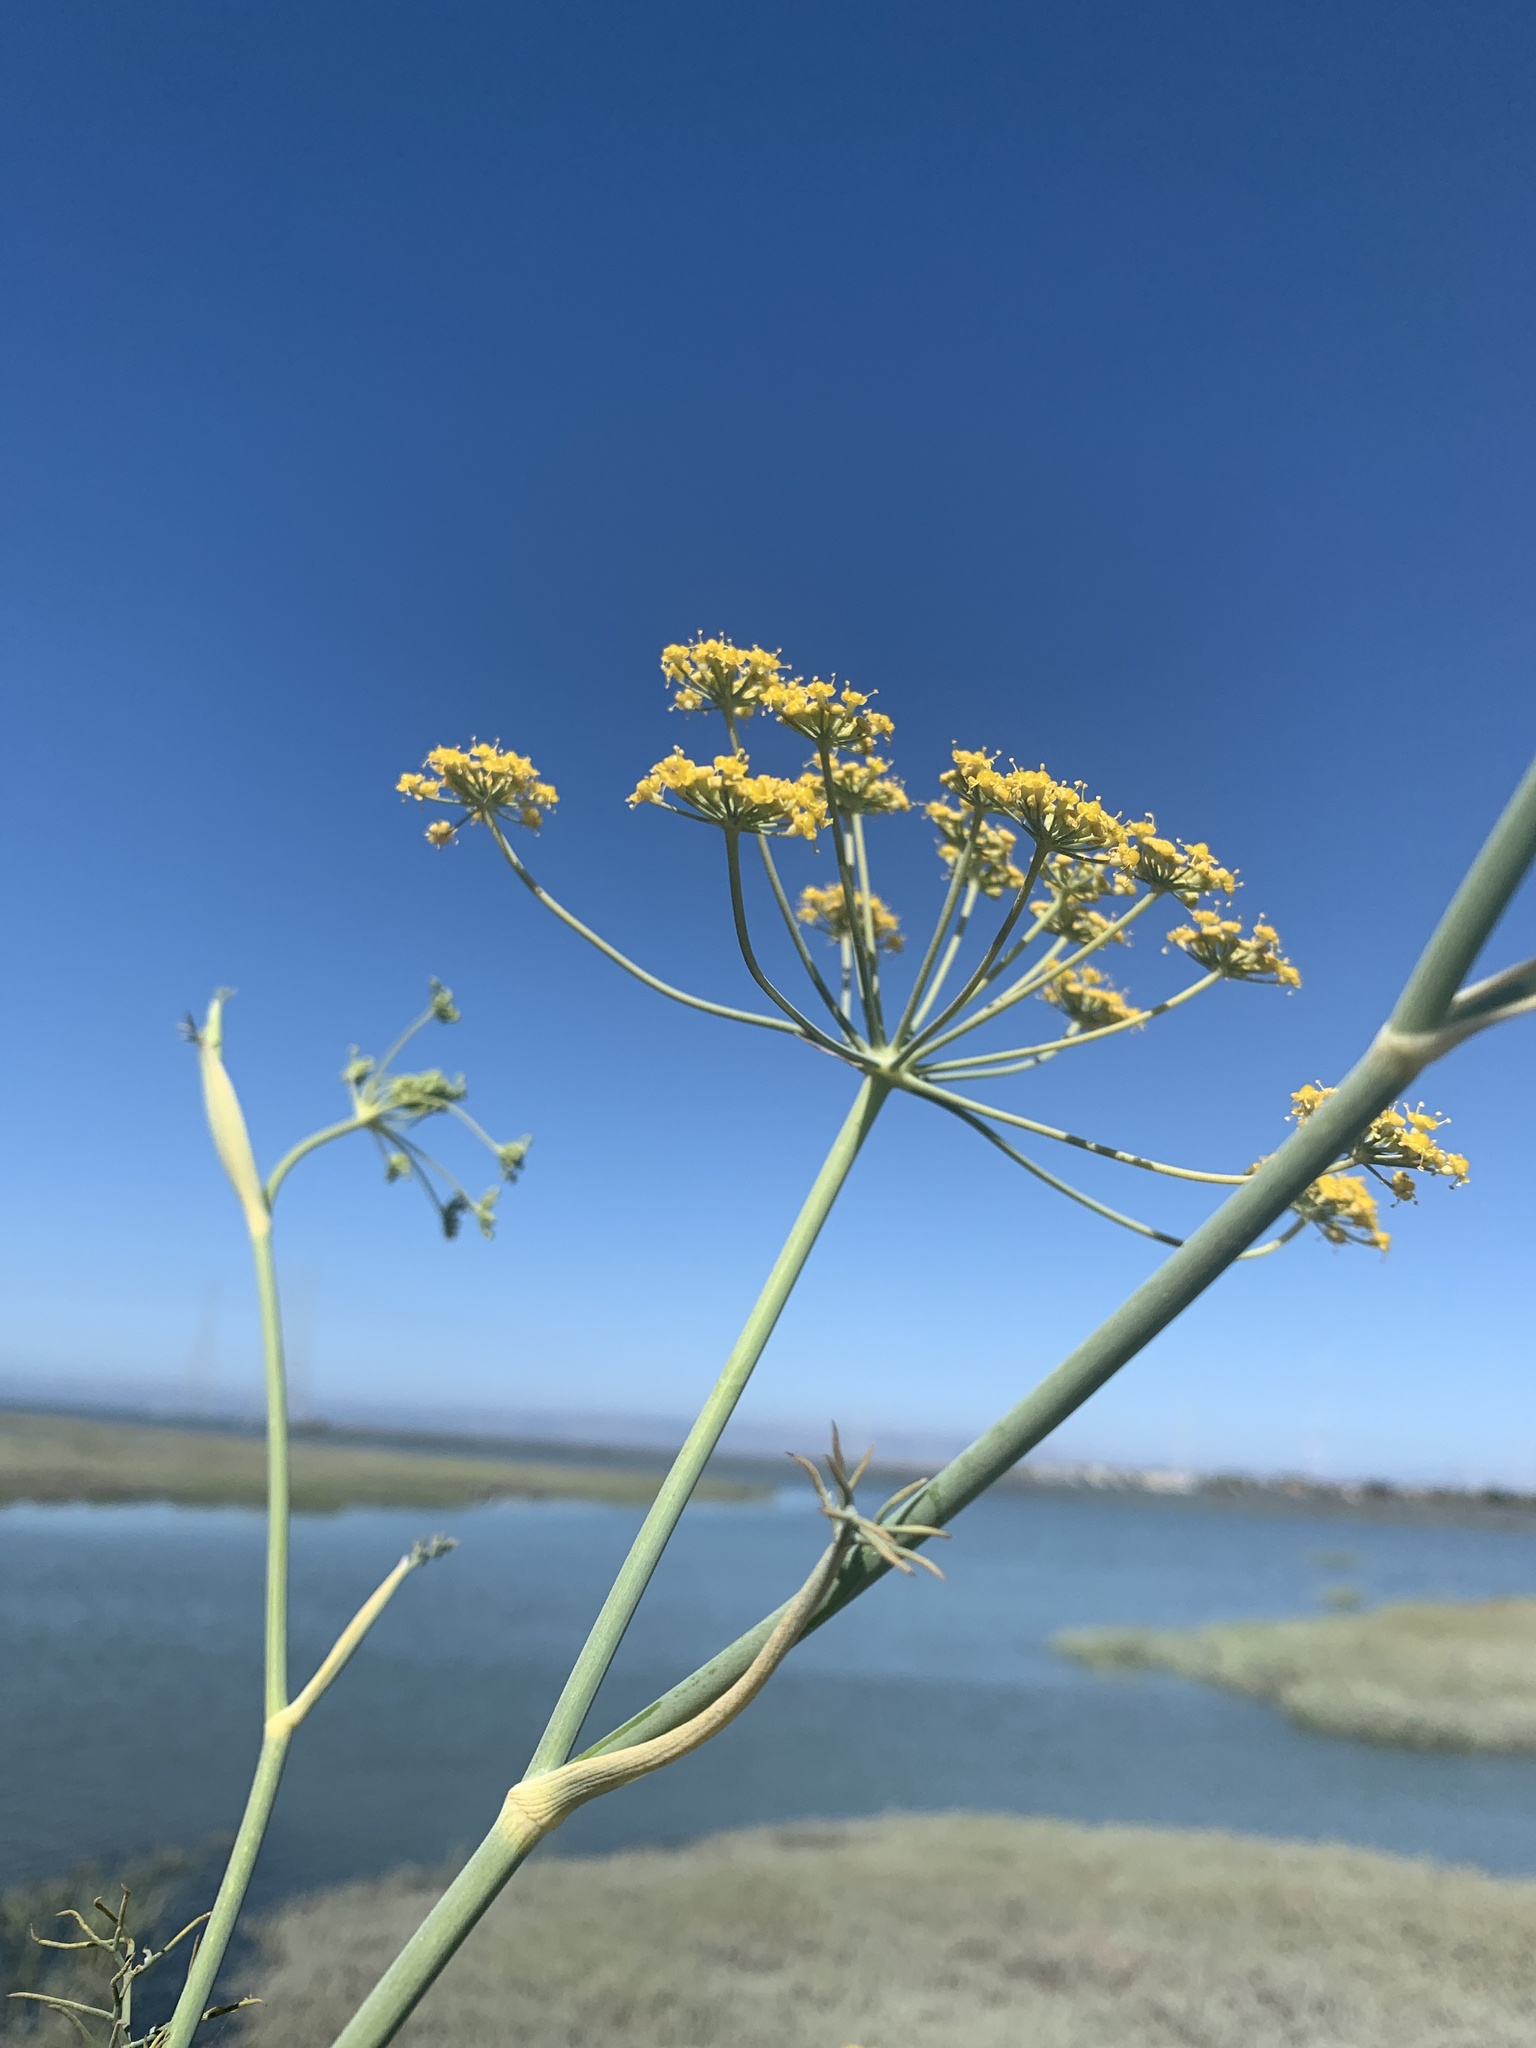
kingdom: Plantae
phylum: Tracheophyta
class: Magnoliopsida
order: Apiales
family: Apiaceae
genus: Foeniculum
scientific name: Foeniculum vulgare
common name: Fennel
